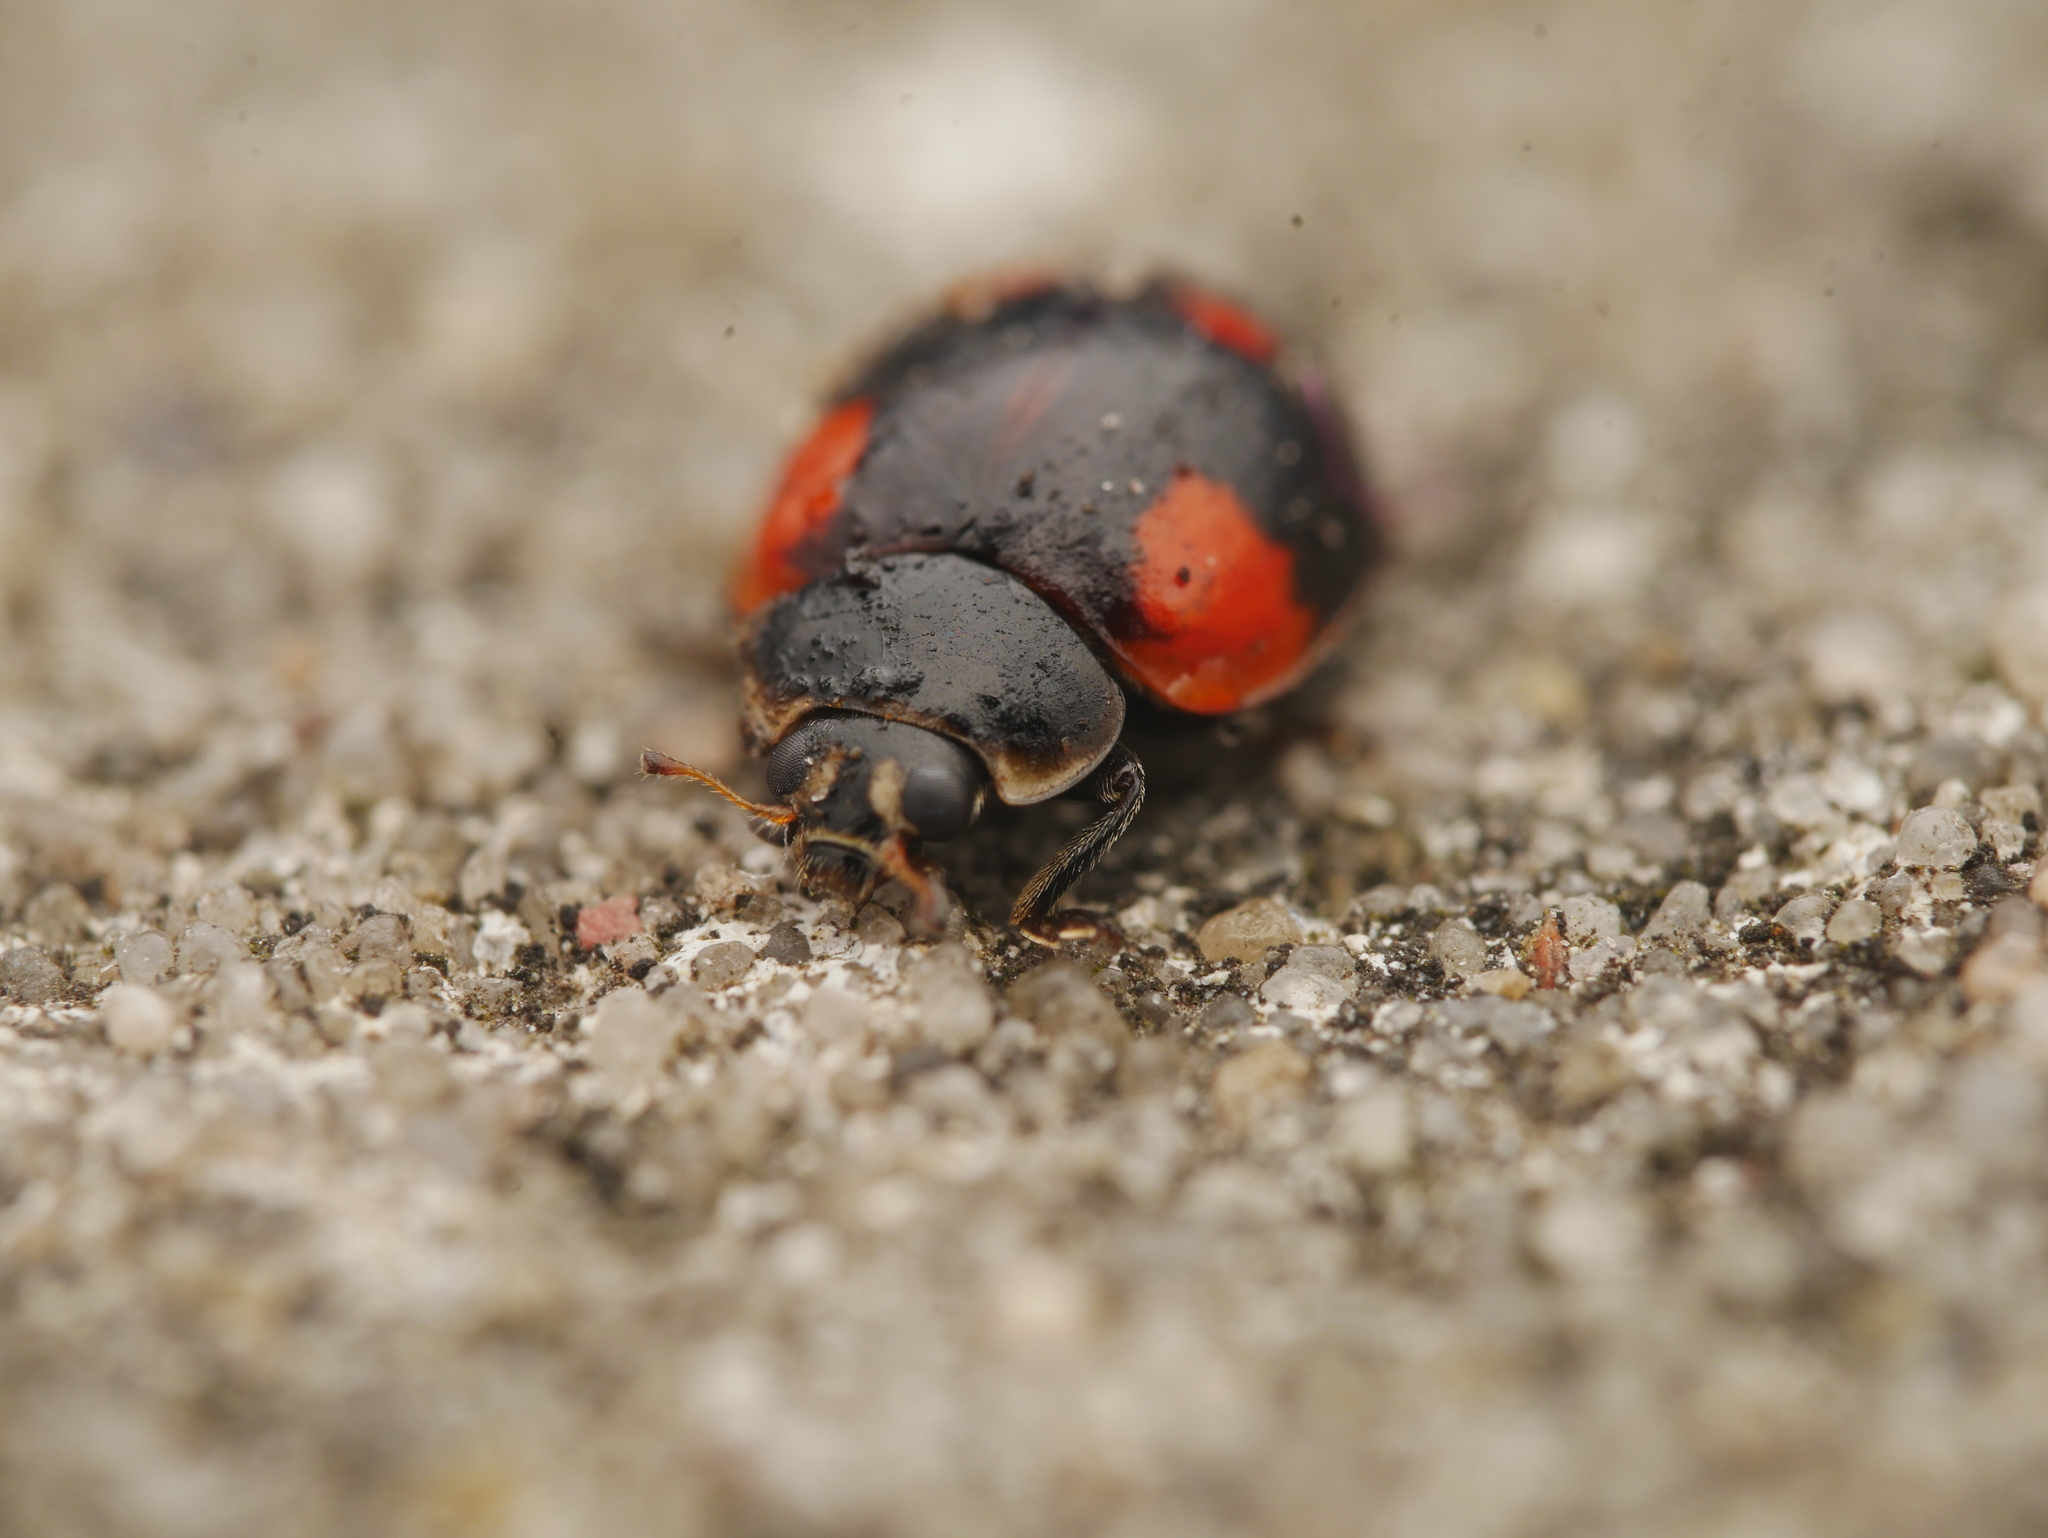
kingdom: Animalia
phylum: Arthropoda
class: Insecta
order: Coleoptera
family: Coccinellidae
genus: Adalia
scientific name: Adalia bipunctata
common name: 2-spot ladybird
